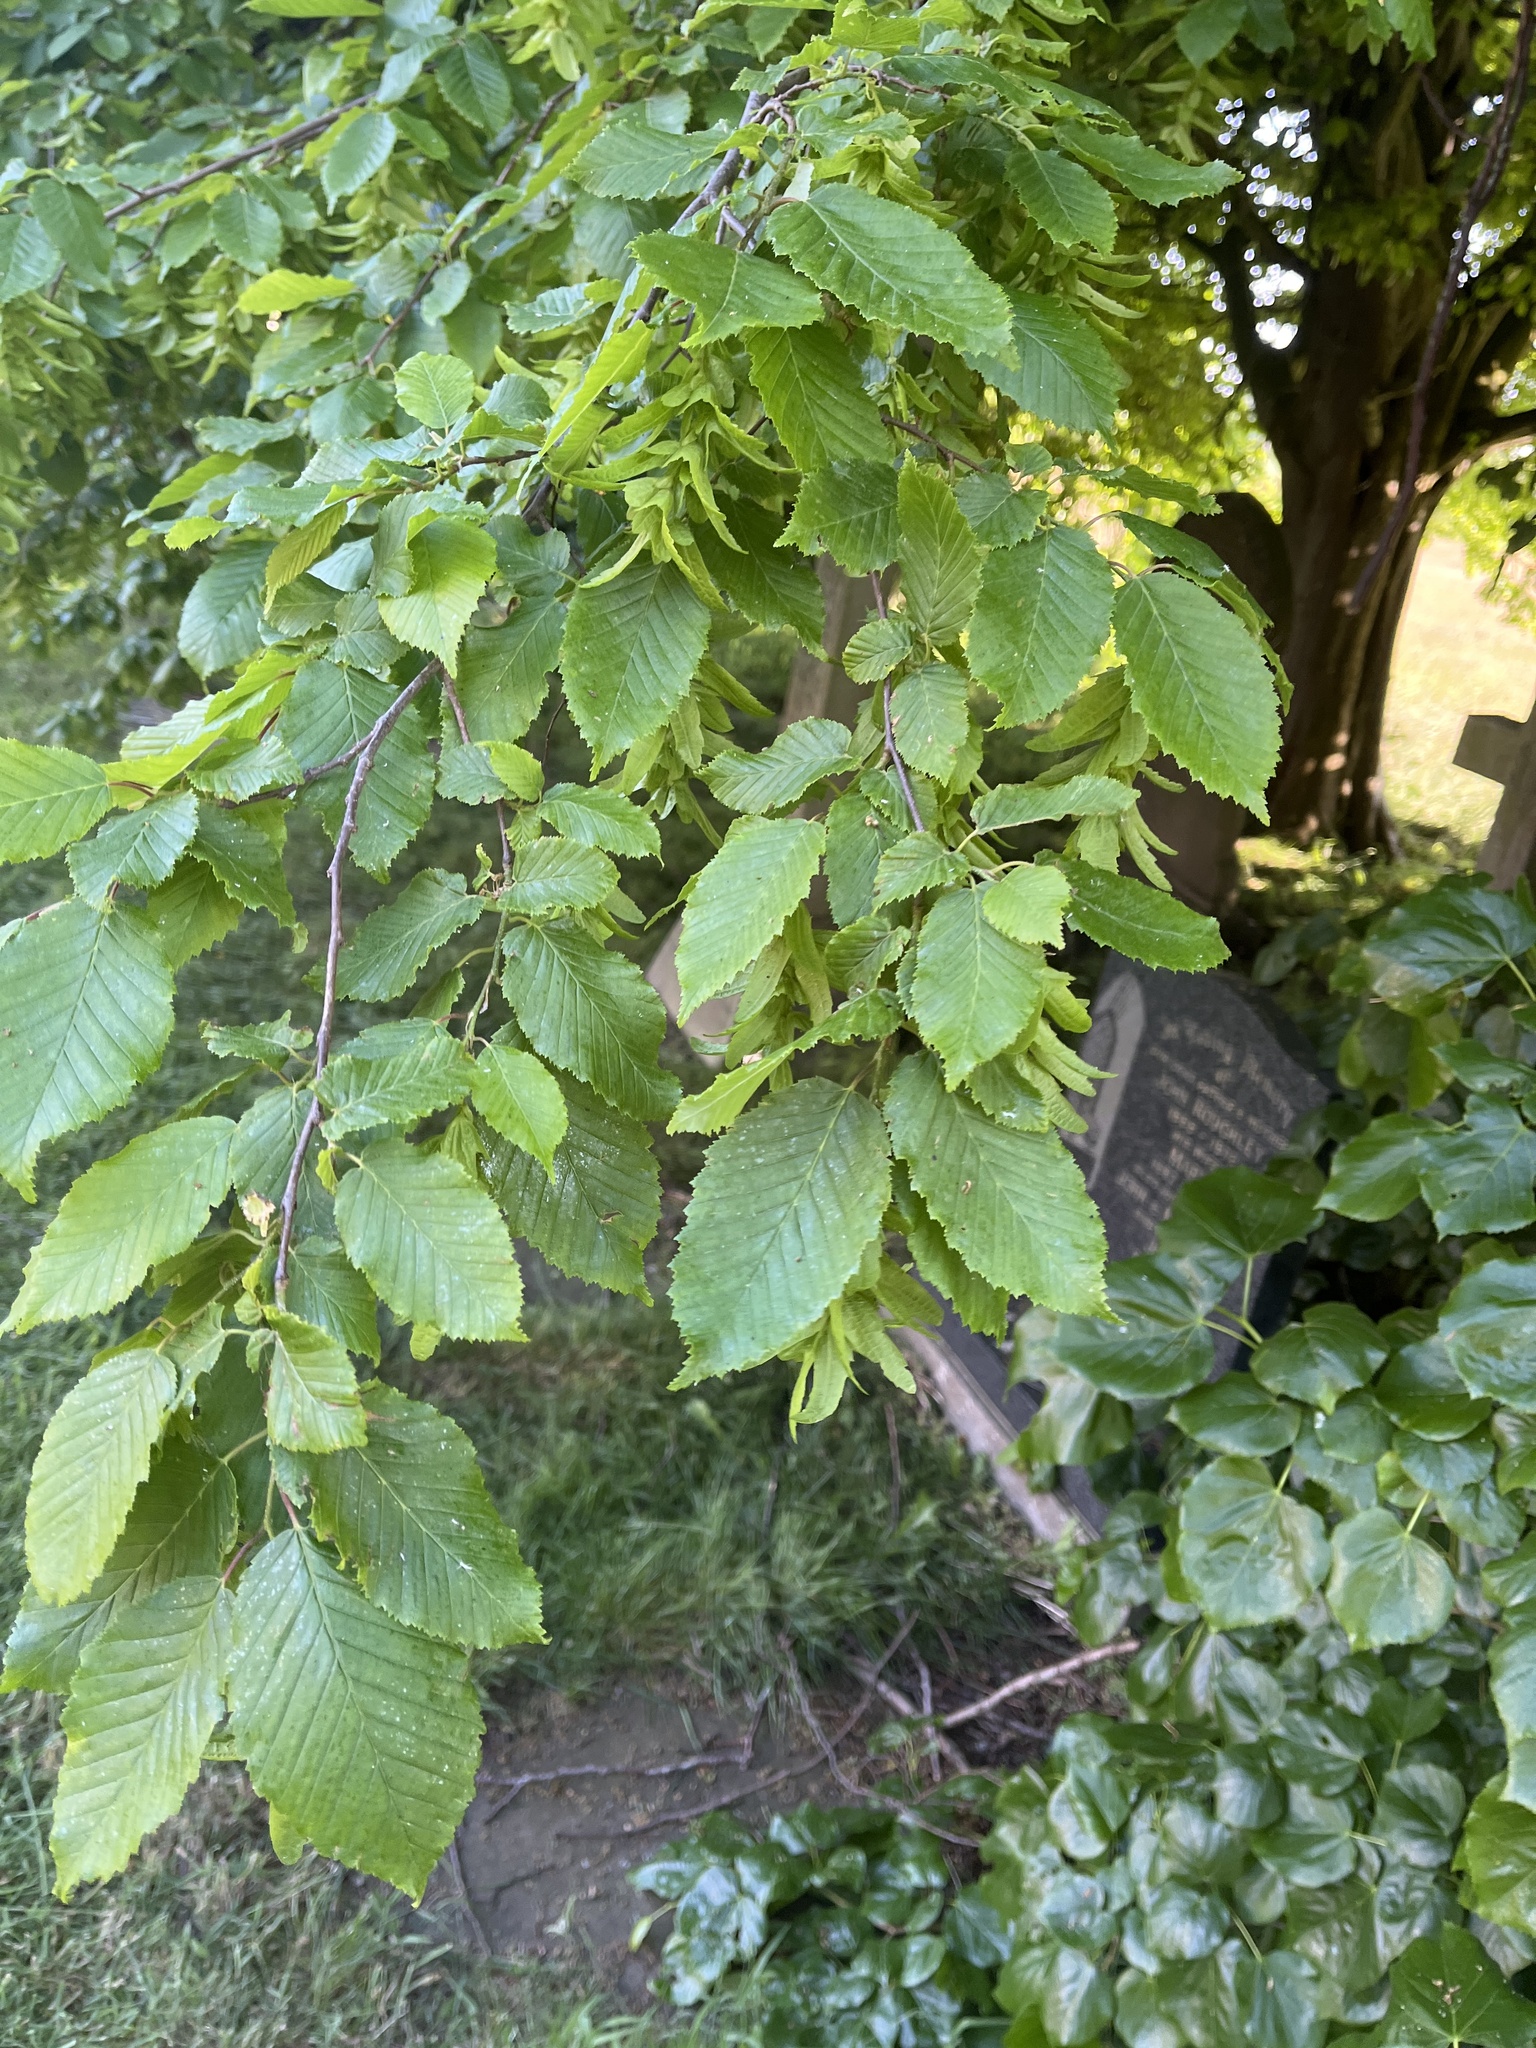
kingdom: Plantae
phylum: Tracheophyta
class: Magnoliopsida
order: Fagales
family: Betulaceae
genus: Carpinus
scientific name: Carpinus betulus
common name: Hornbeam
